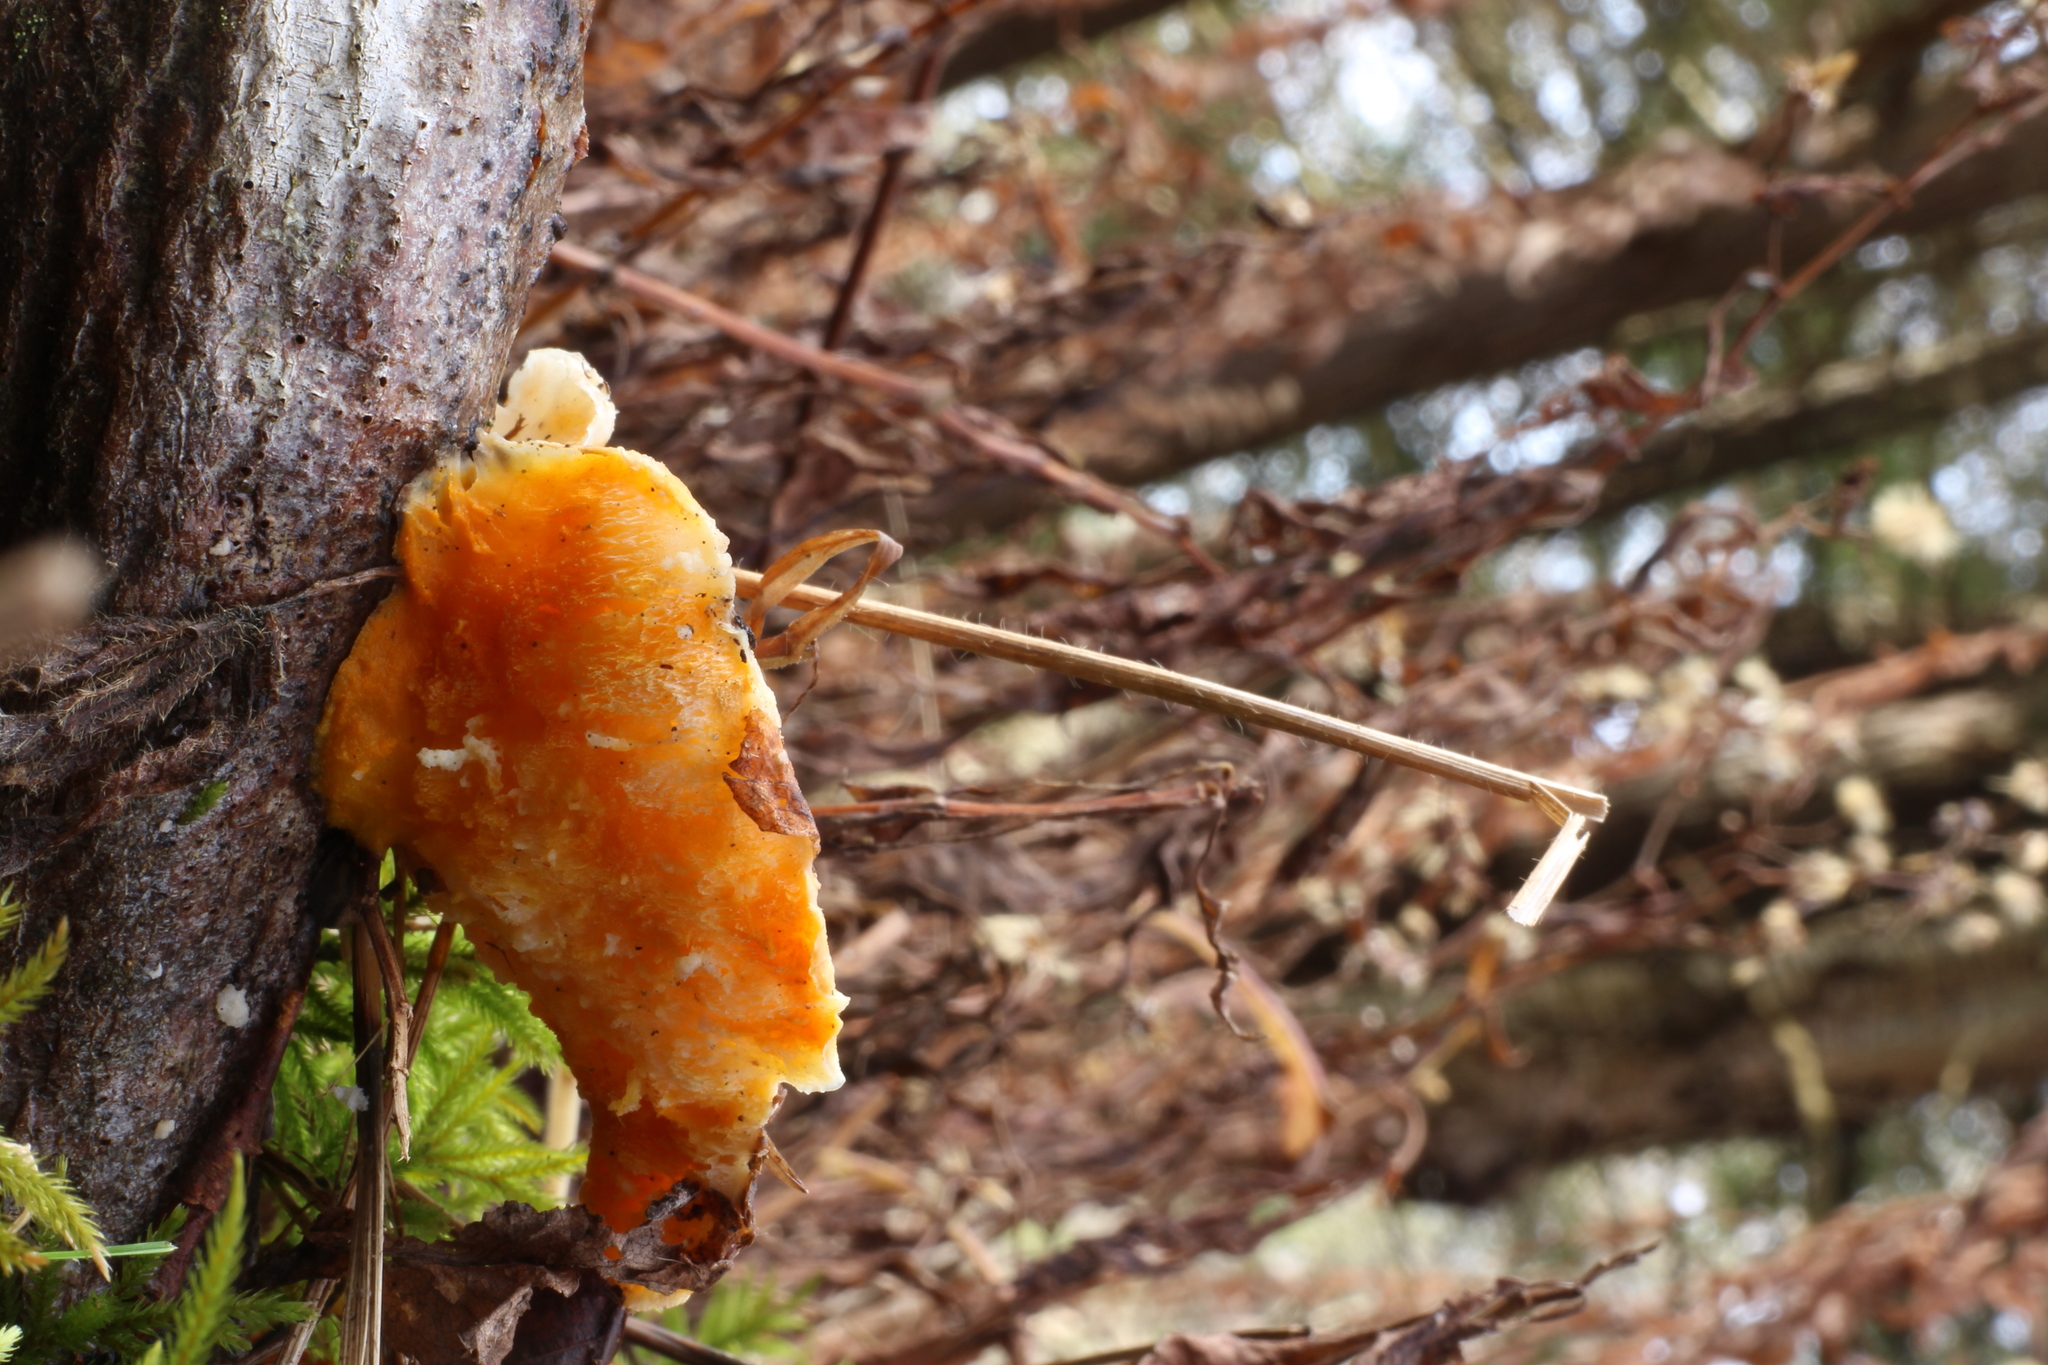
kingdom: Fungi
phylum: Ascomycota
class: Sordariomycetes
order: Hypocreales
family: Hypocreaceae
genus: Protocrea
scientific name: Protocrea pallida
